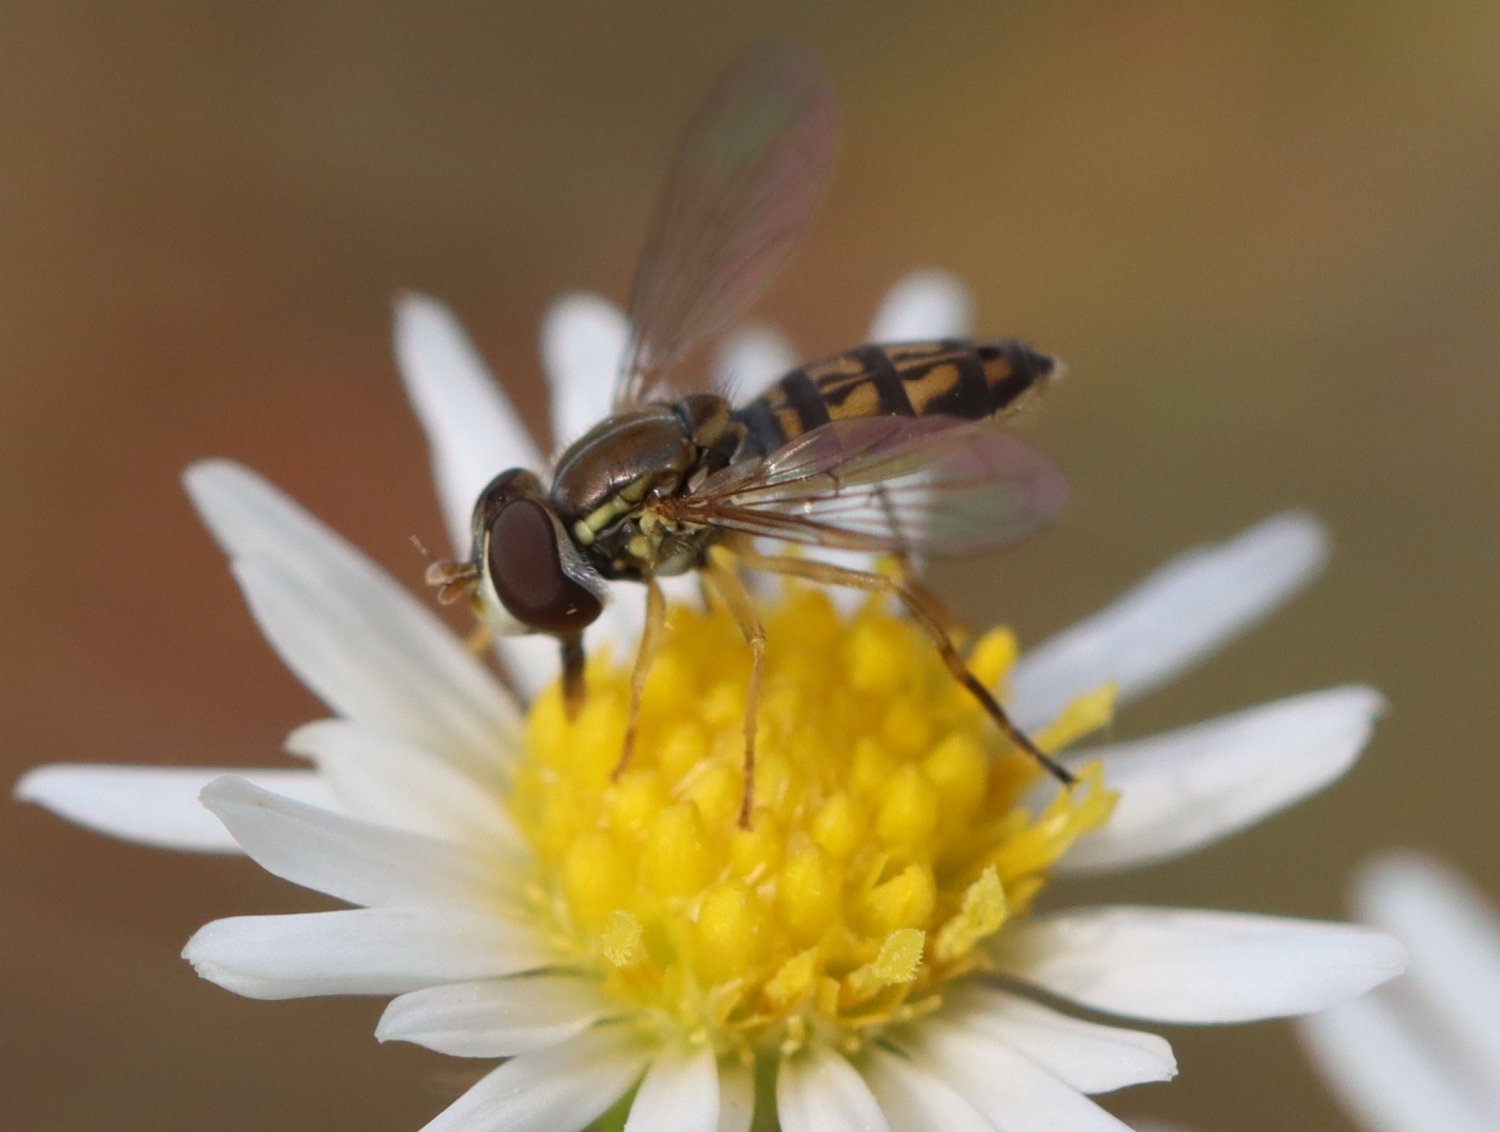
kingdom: Animalia
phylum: Arthropoda
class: Insecta
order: Diptera
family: Syrphidae
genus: Toxomerus
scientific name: Toxomerus marginatus
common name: Syrphid fly
